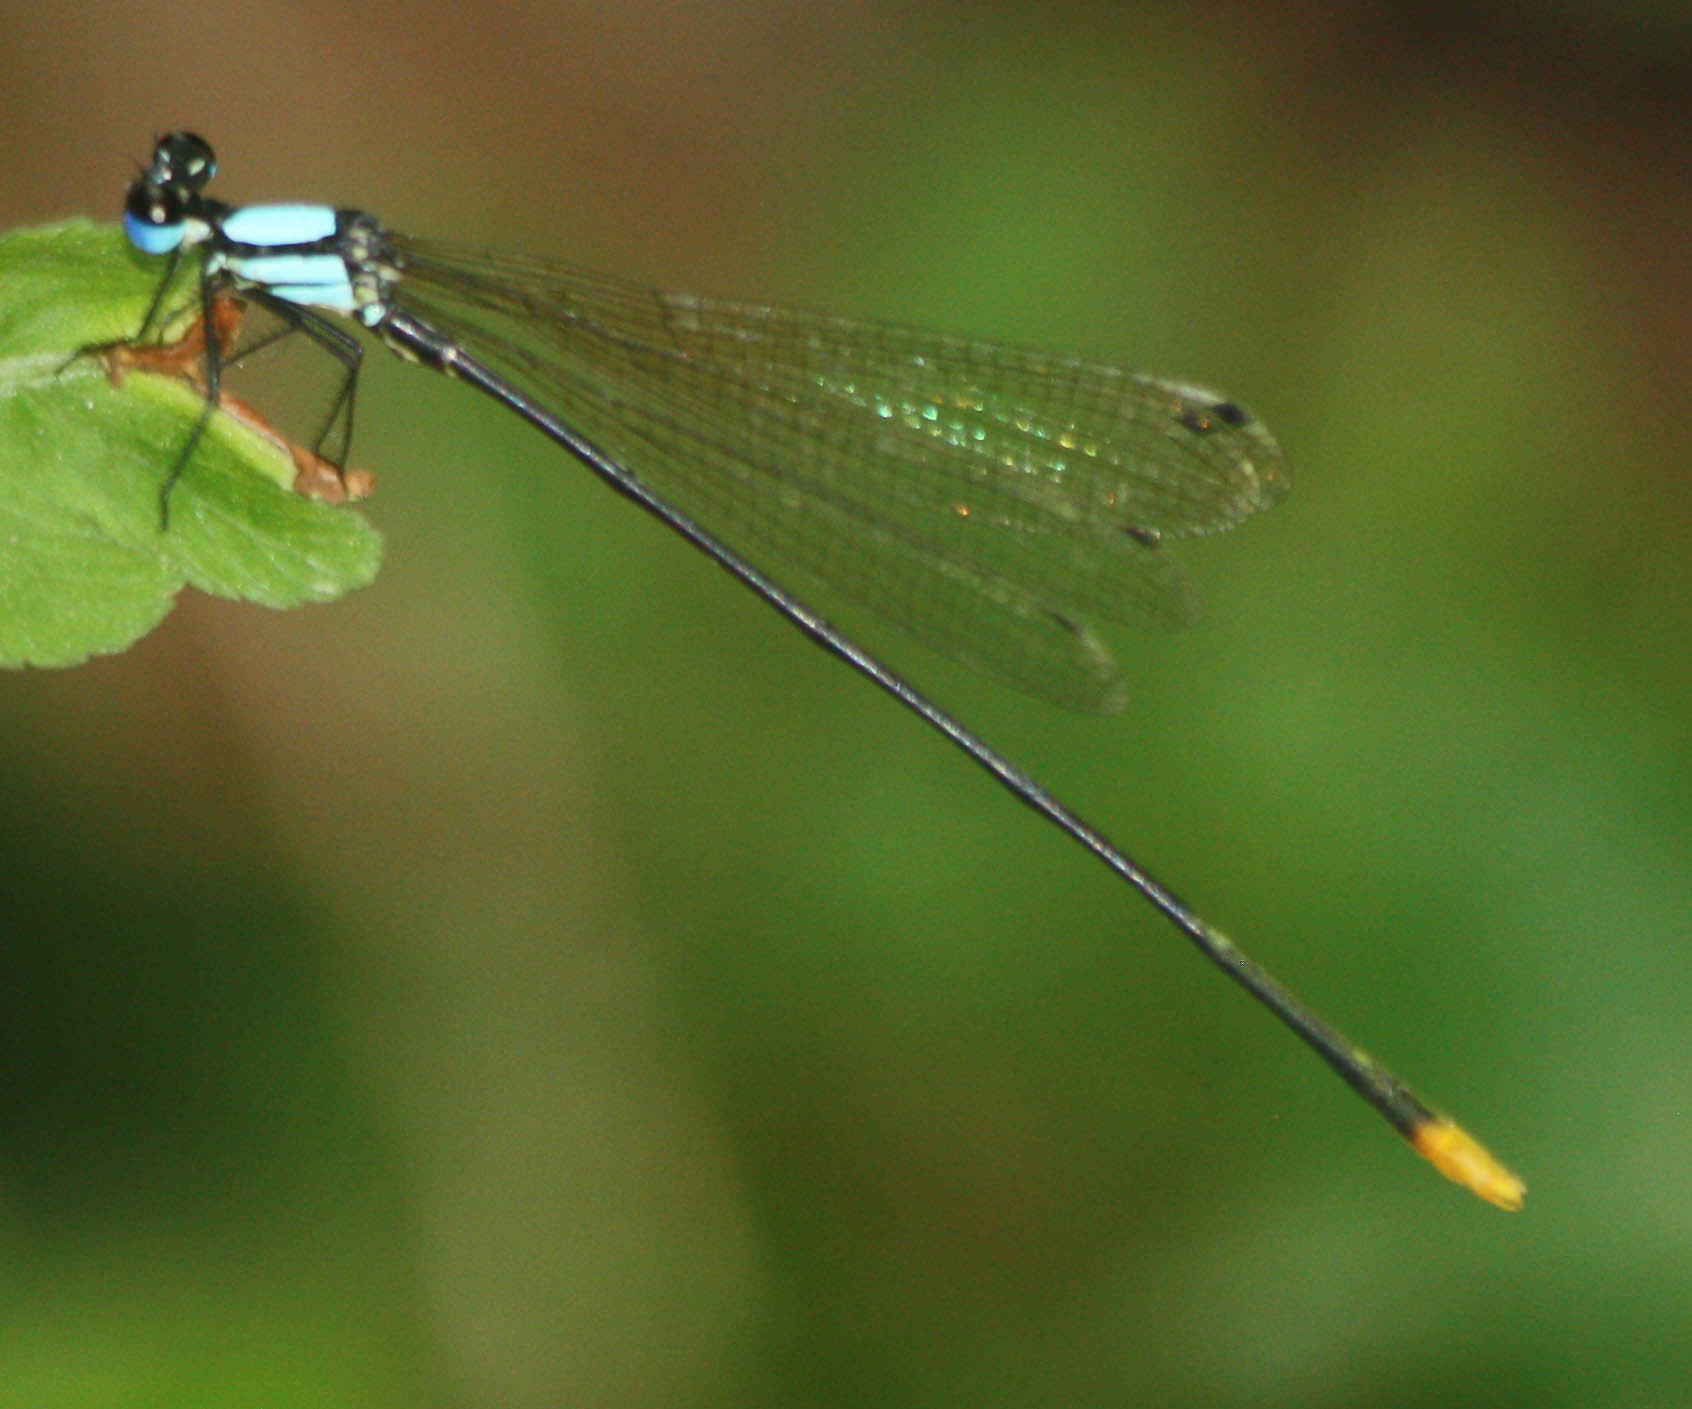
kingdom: Animalia
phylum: Arthropoda
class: Insecta
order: Odonata
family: Platycnemididae
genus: Coeliccia
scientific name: Coeliccia poungyi
